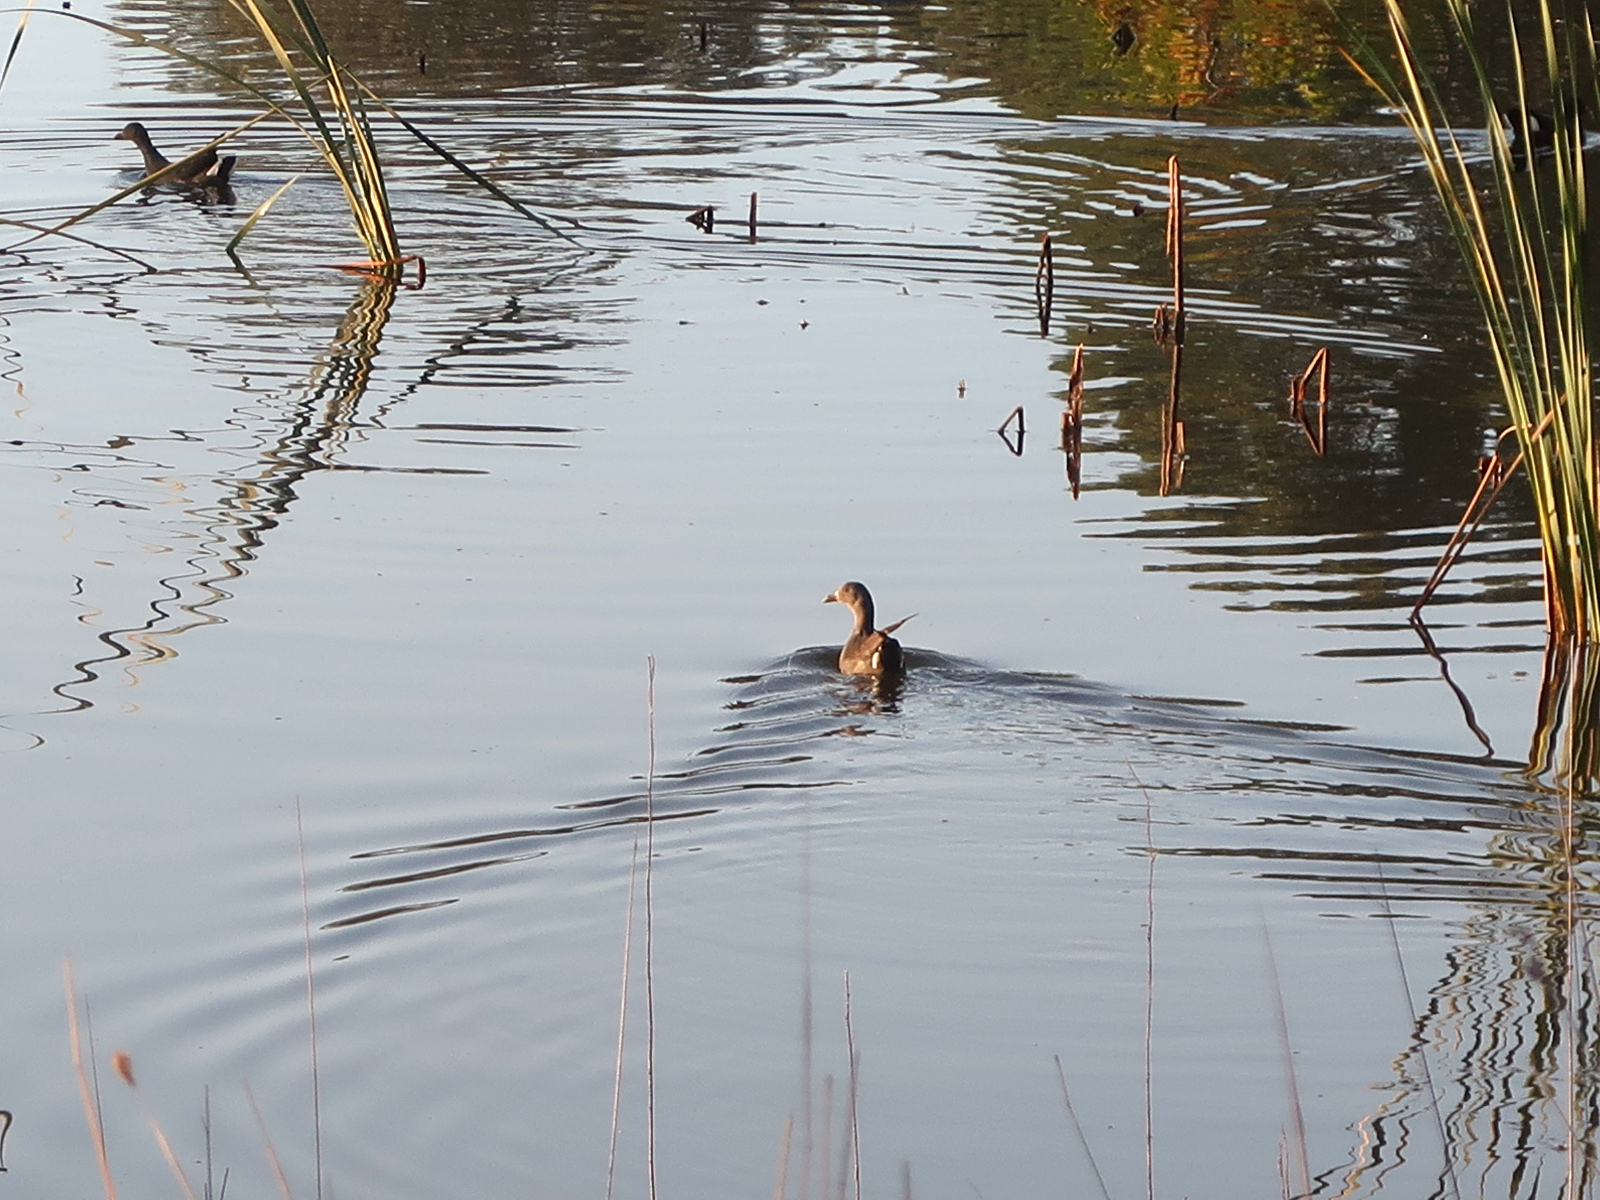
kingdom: Animalia
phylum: Chordata
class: Aves
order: Gruiformes
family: Rallidae
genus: Gallinula
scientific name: Gallinula tenebrosa
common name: Dusky moorhen
